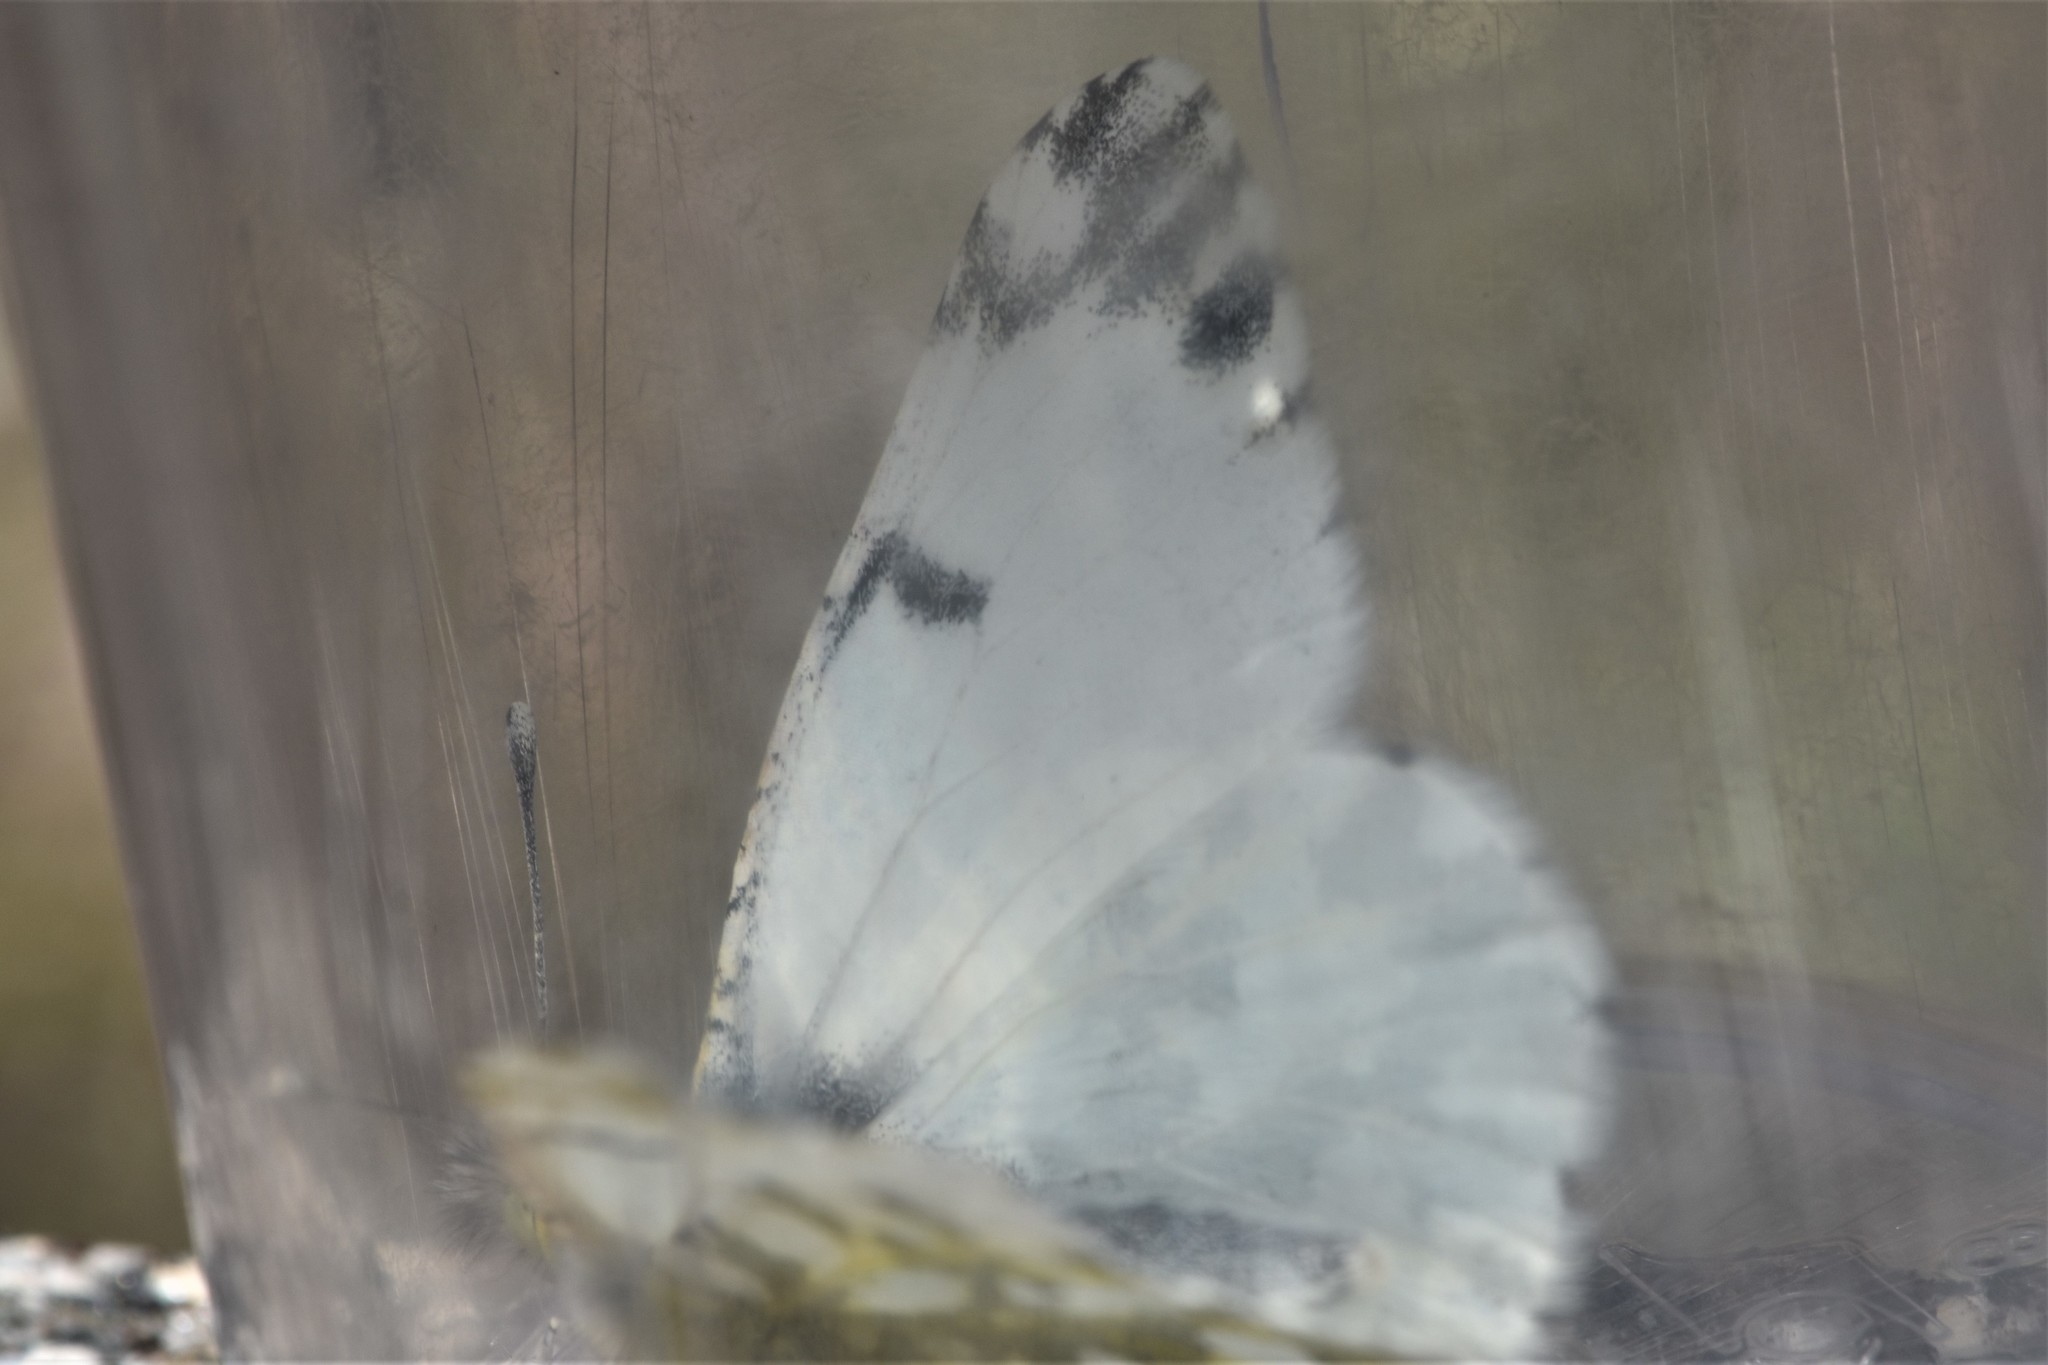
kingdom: Animalia
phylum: Arthropoda
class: Insecta
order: Lepidoptera
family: Pieridae
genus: Euchloe
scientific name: Euchloe ausonides
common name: Creamy marblewing
